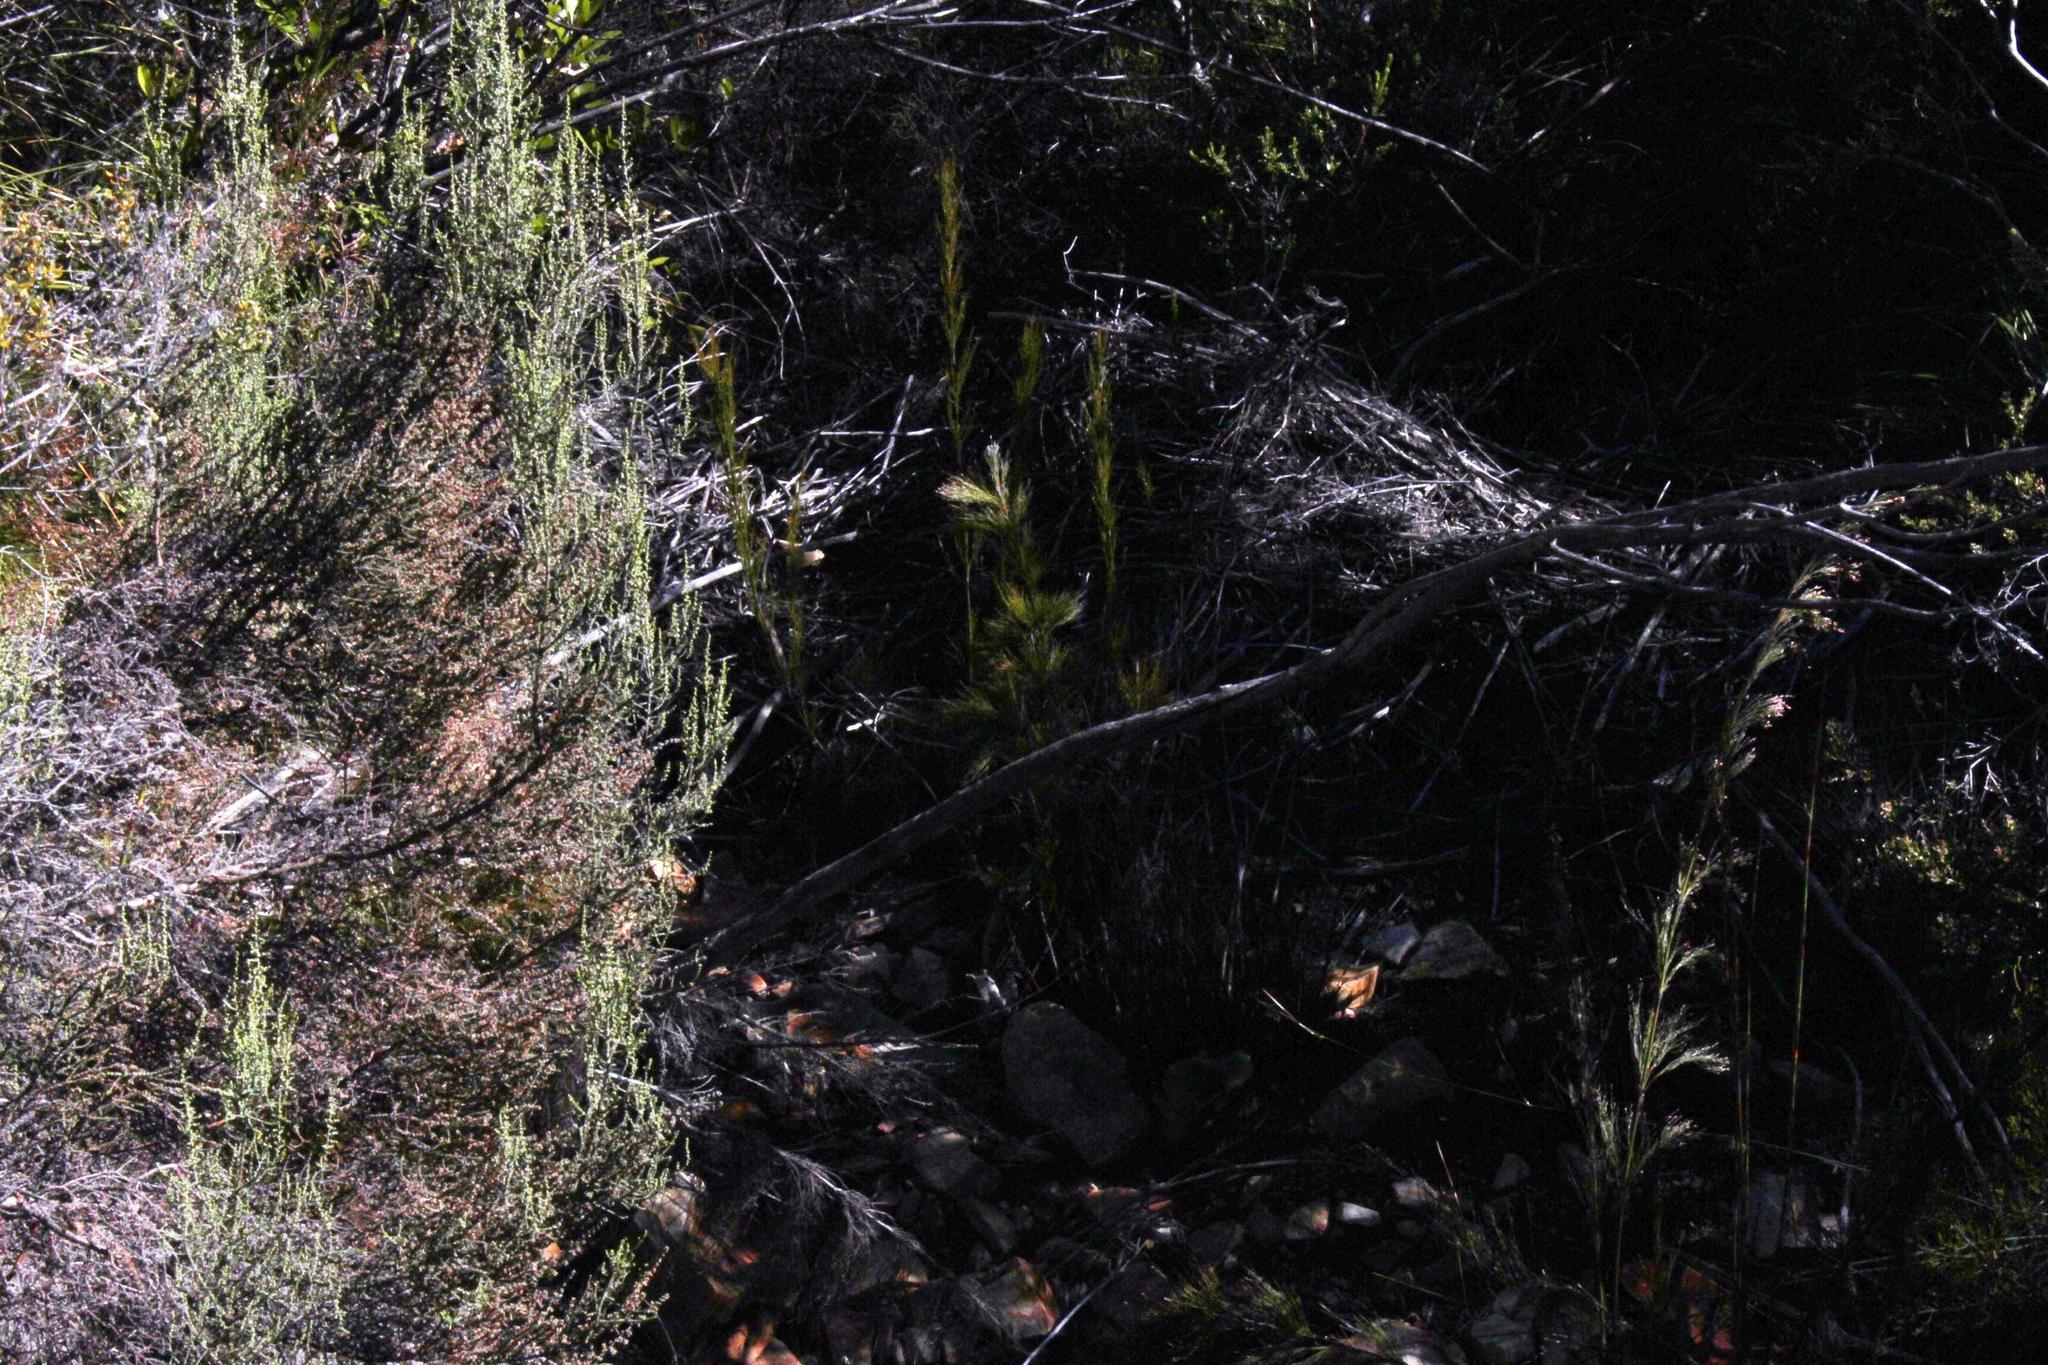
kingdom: Plantae
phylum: Tracheophyta
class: Liliopsida
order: Poales
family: Restionaceae
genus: Restio
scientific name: Restio paniculatus
